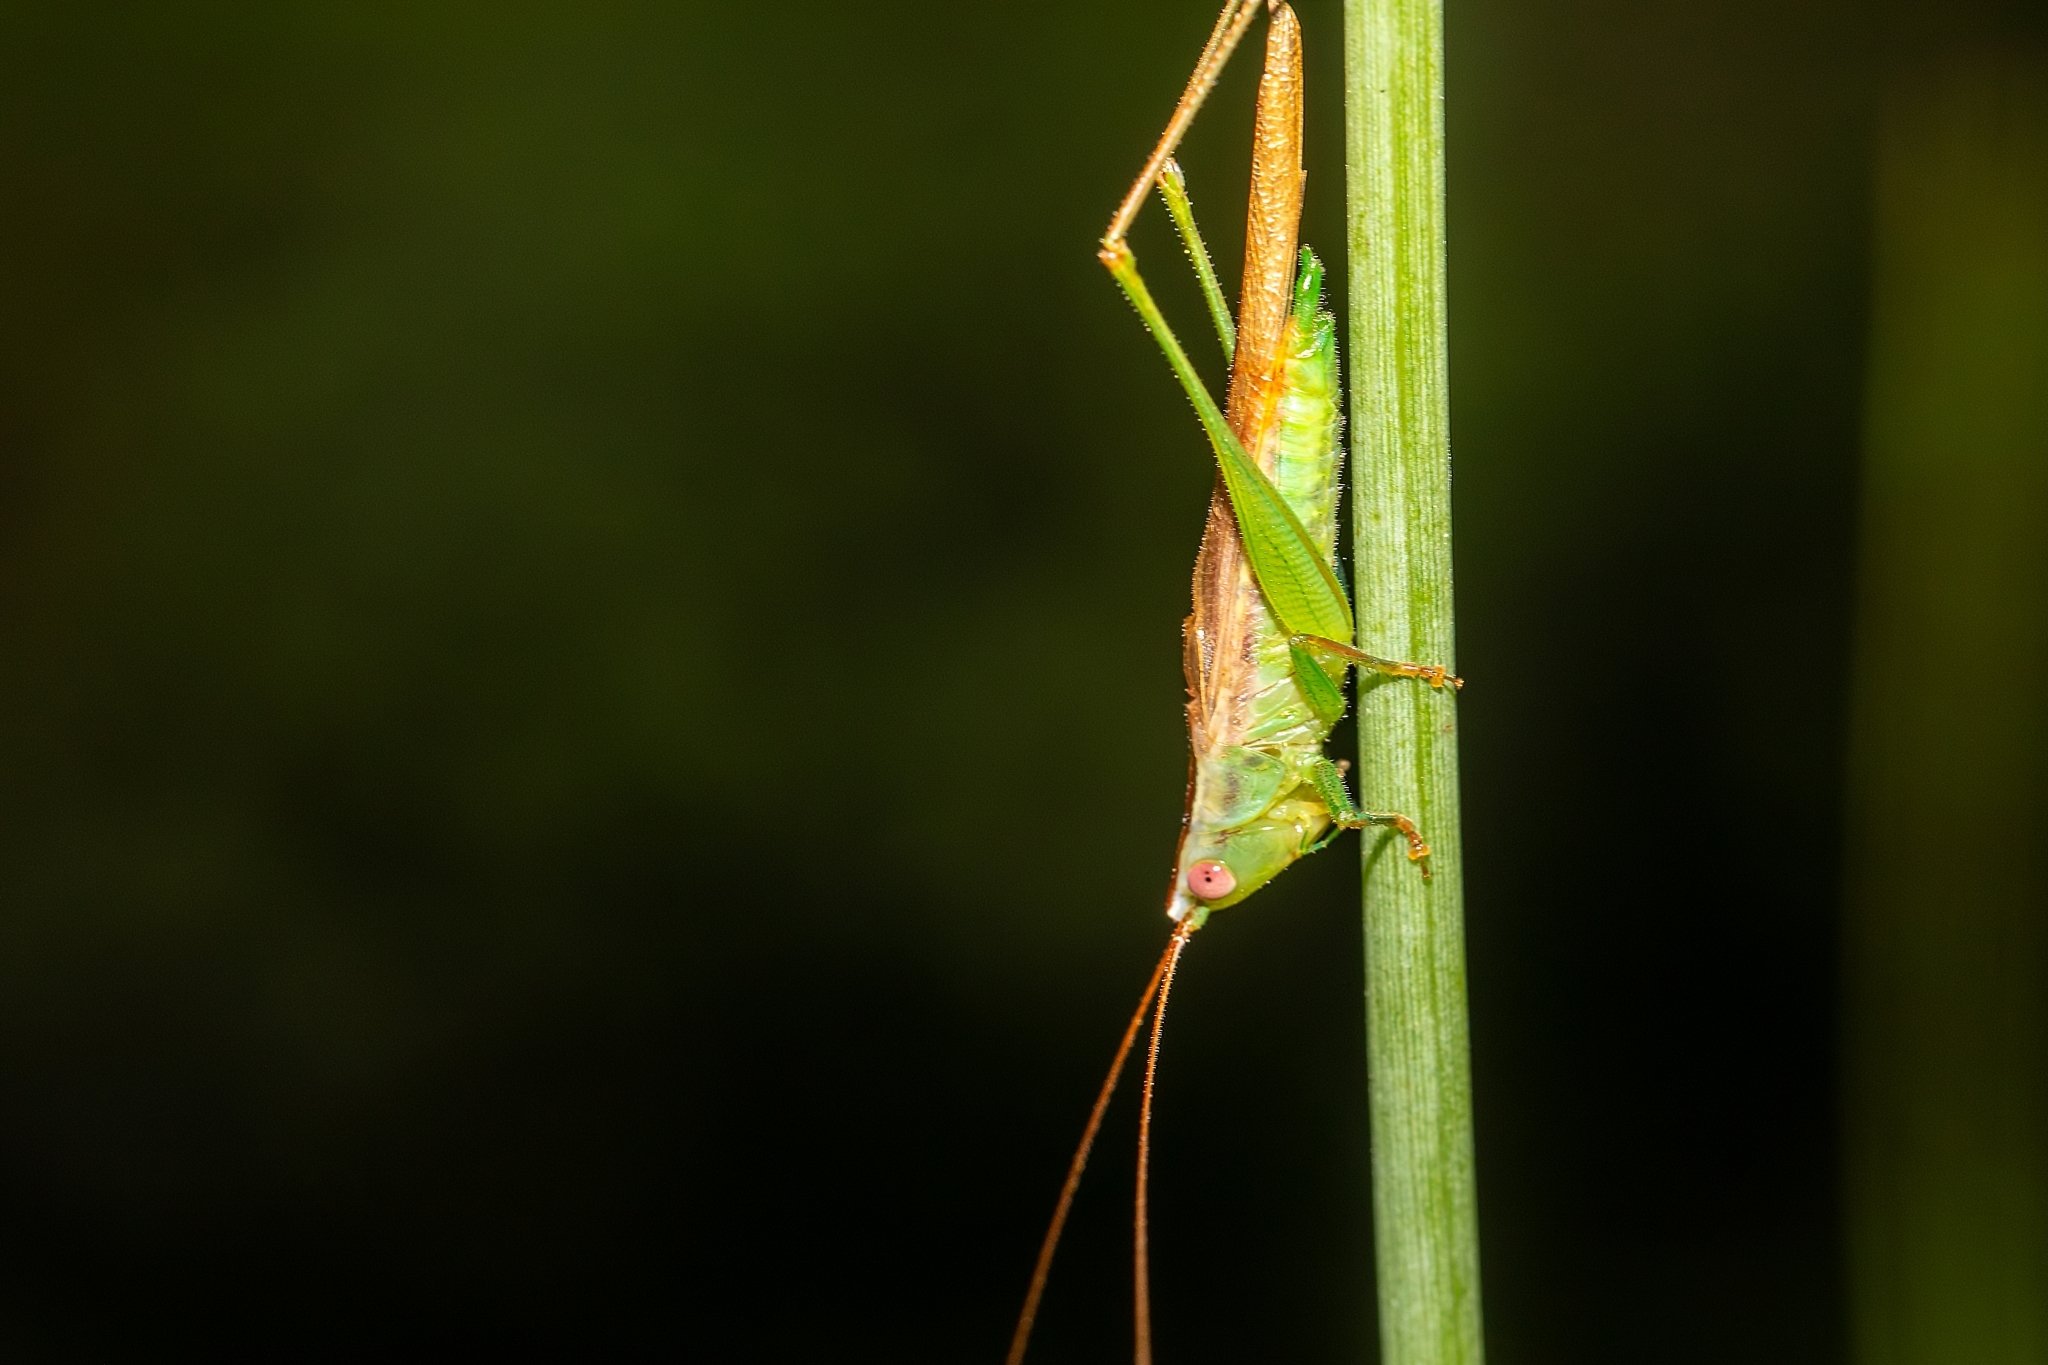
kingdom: Animalia
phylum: Arthropoda
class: Insecta
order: Orthoptera
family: Tettigoniidae
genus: Conocephalus
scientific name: Conocephalus gracillimus
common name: Graceful meadow katydid
